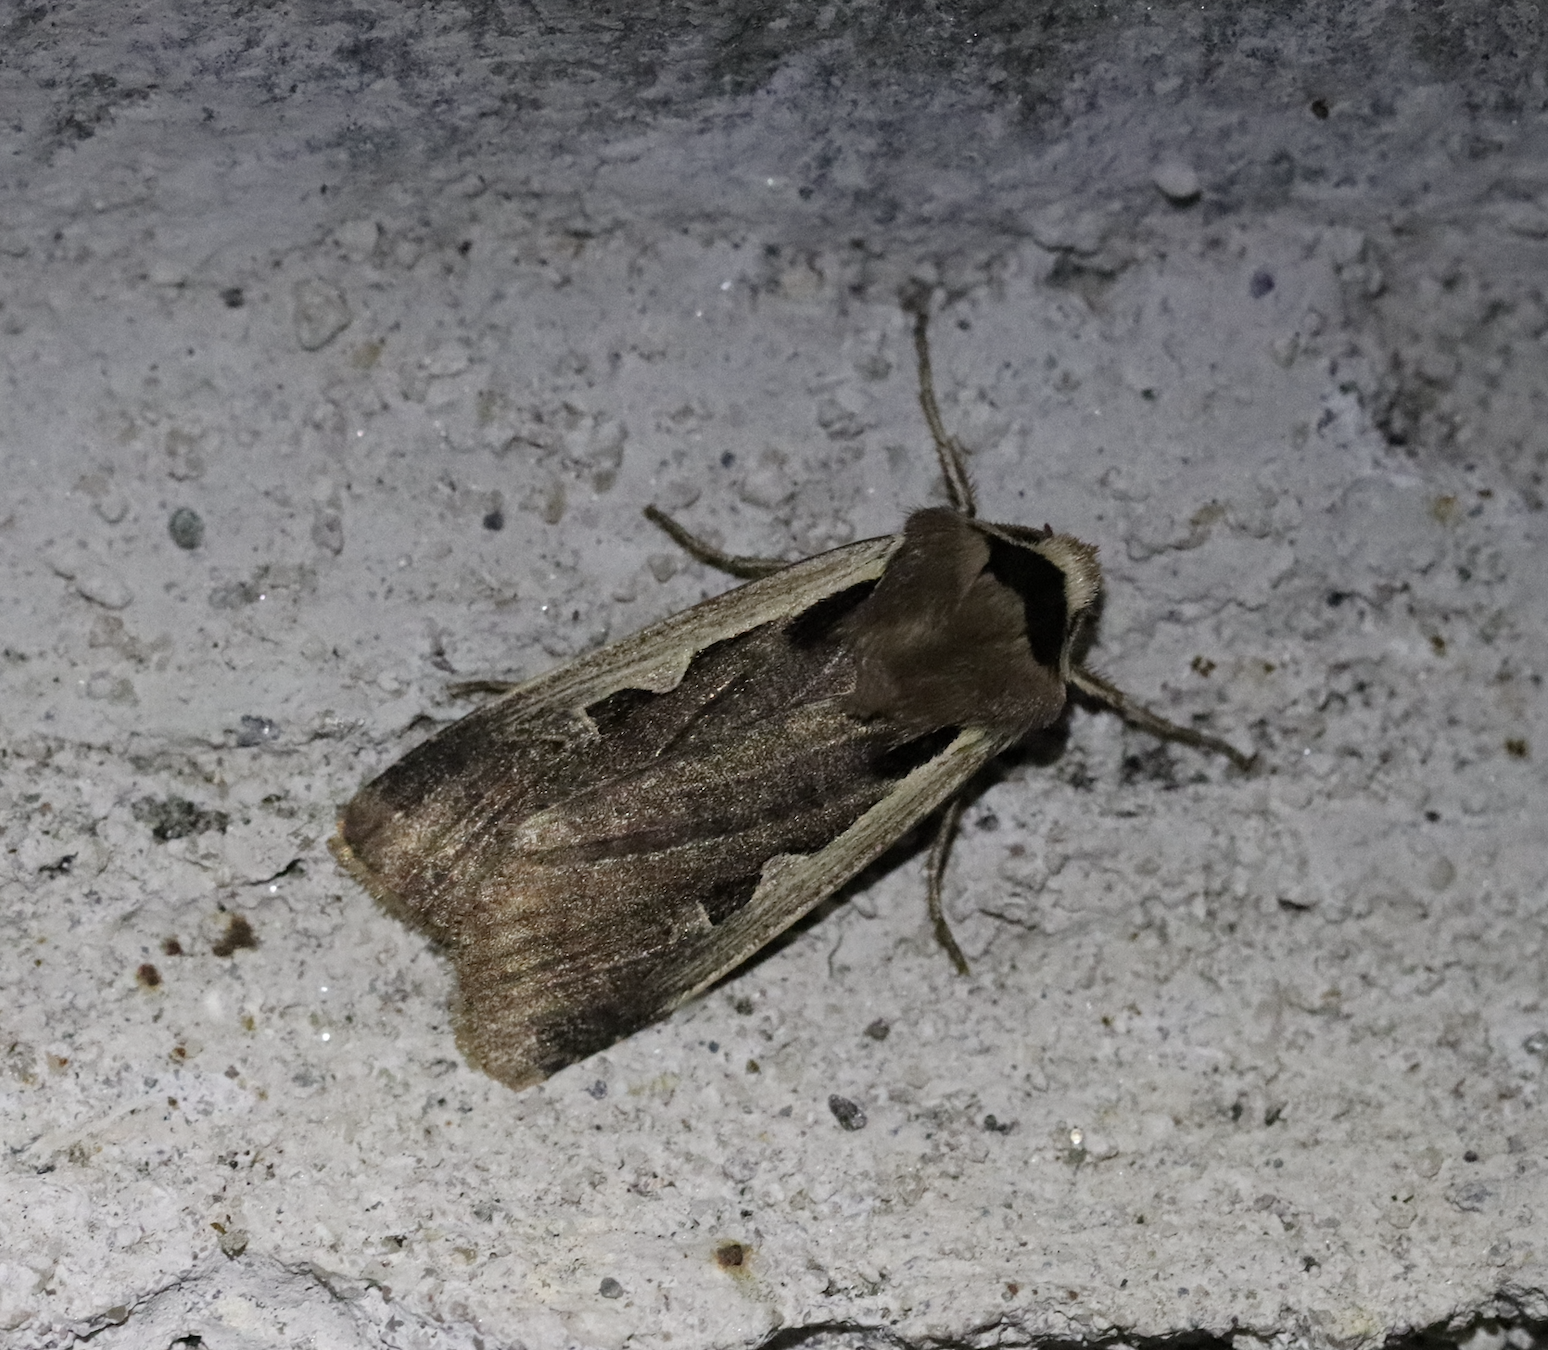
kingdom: Animalia
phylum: Arthropoda
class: Insecta
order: Lepidoptera
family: Noctuidae
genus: Dichagyris
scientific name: Dichagyris musiva
